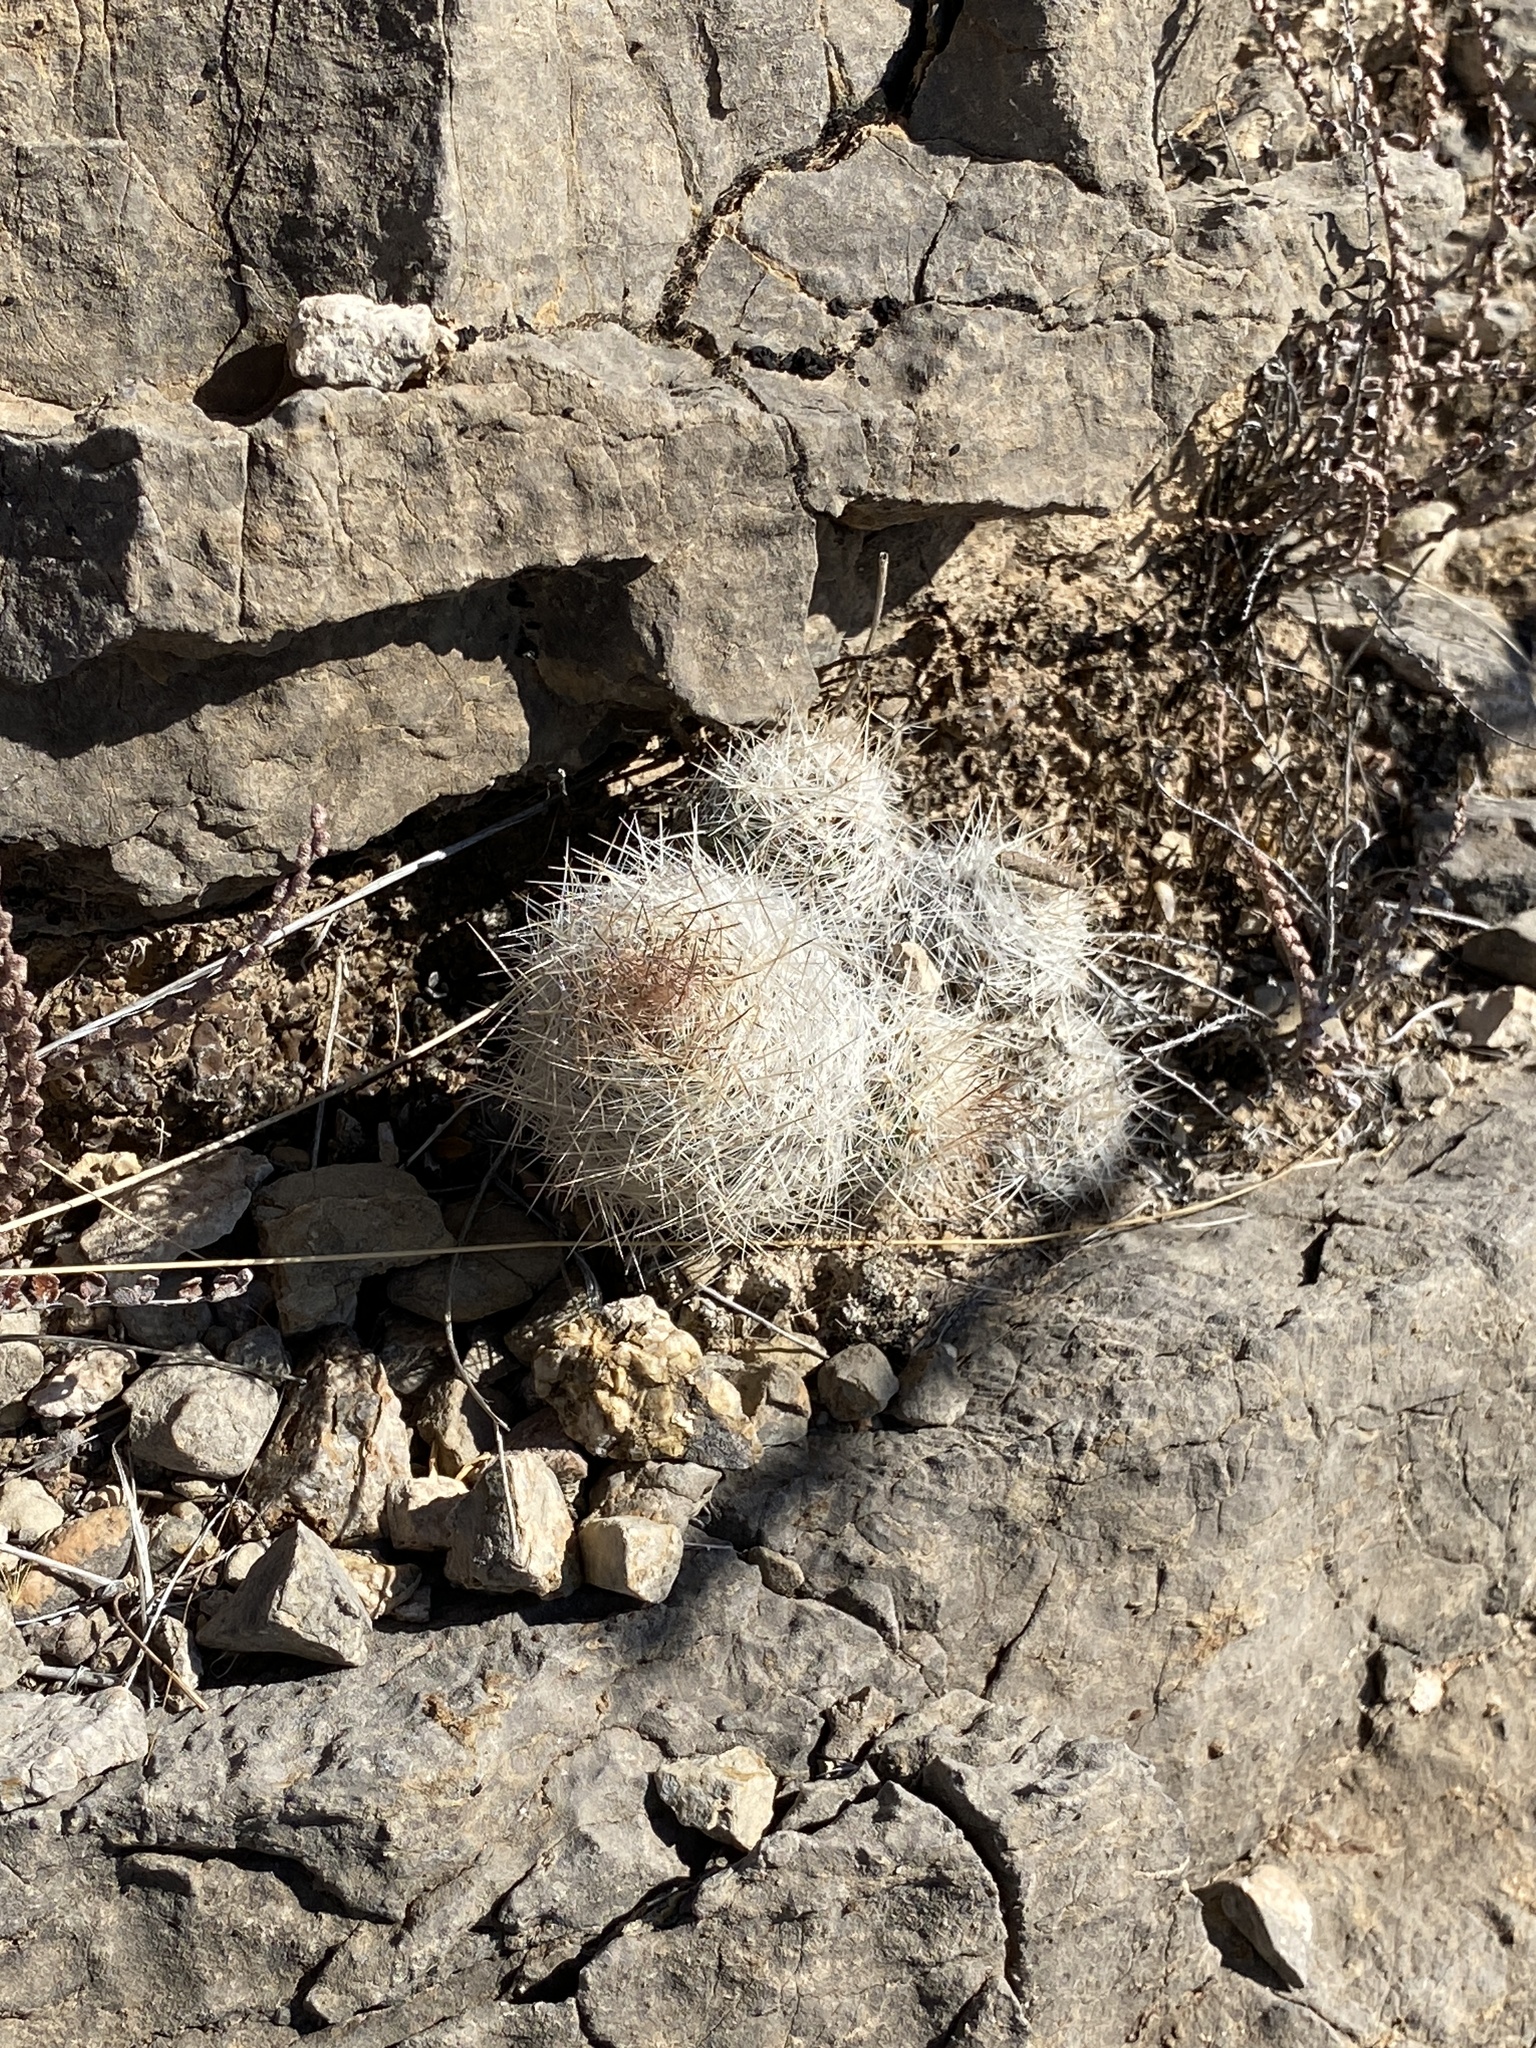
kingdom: Plantae
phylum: Tracheophyta
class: Magnoliopsida
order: Caryophyllales
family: Cactaceae
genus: Pelecyphora
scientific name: Pelecyphora tuberculosa
